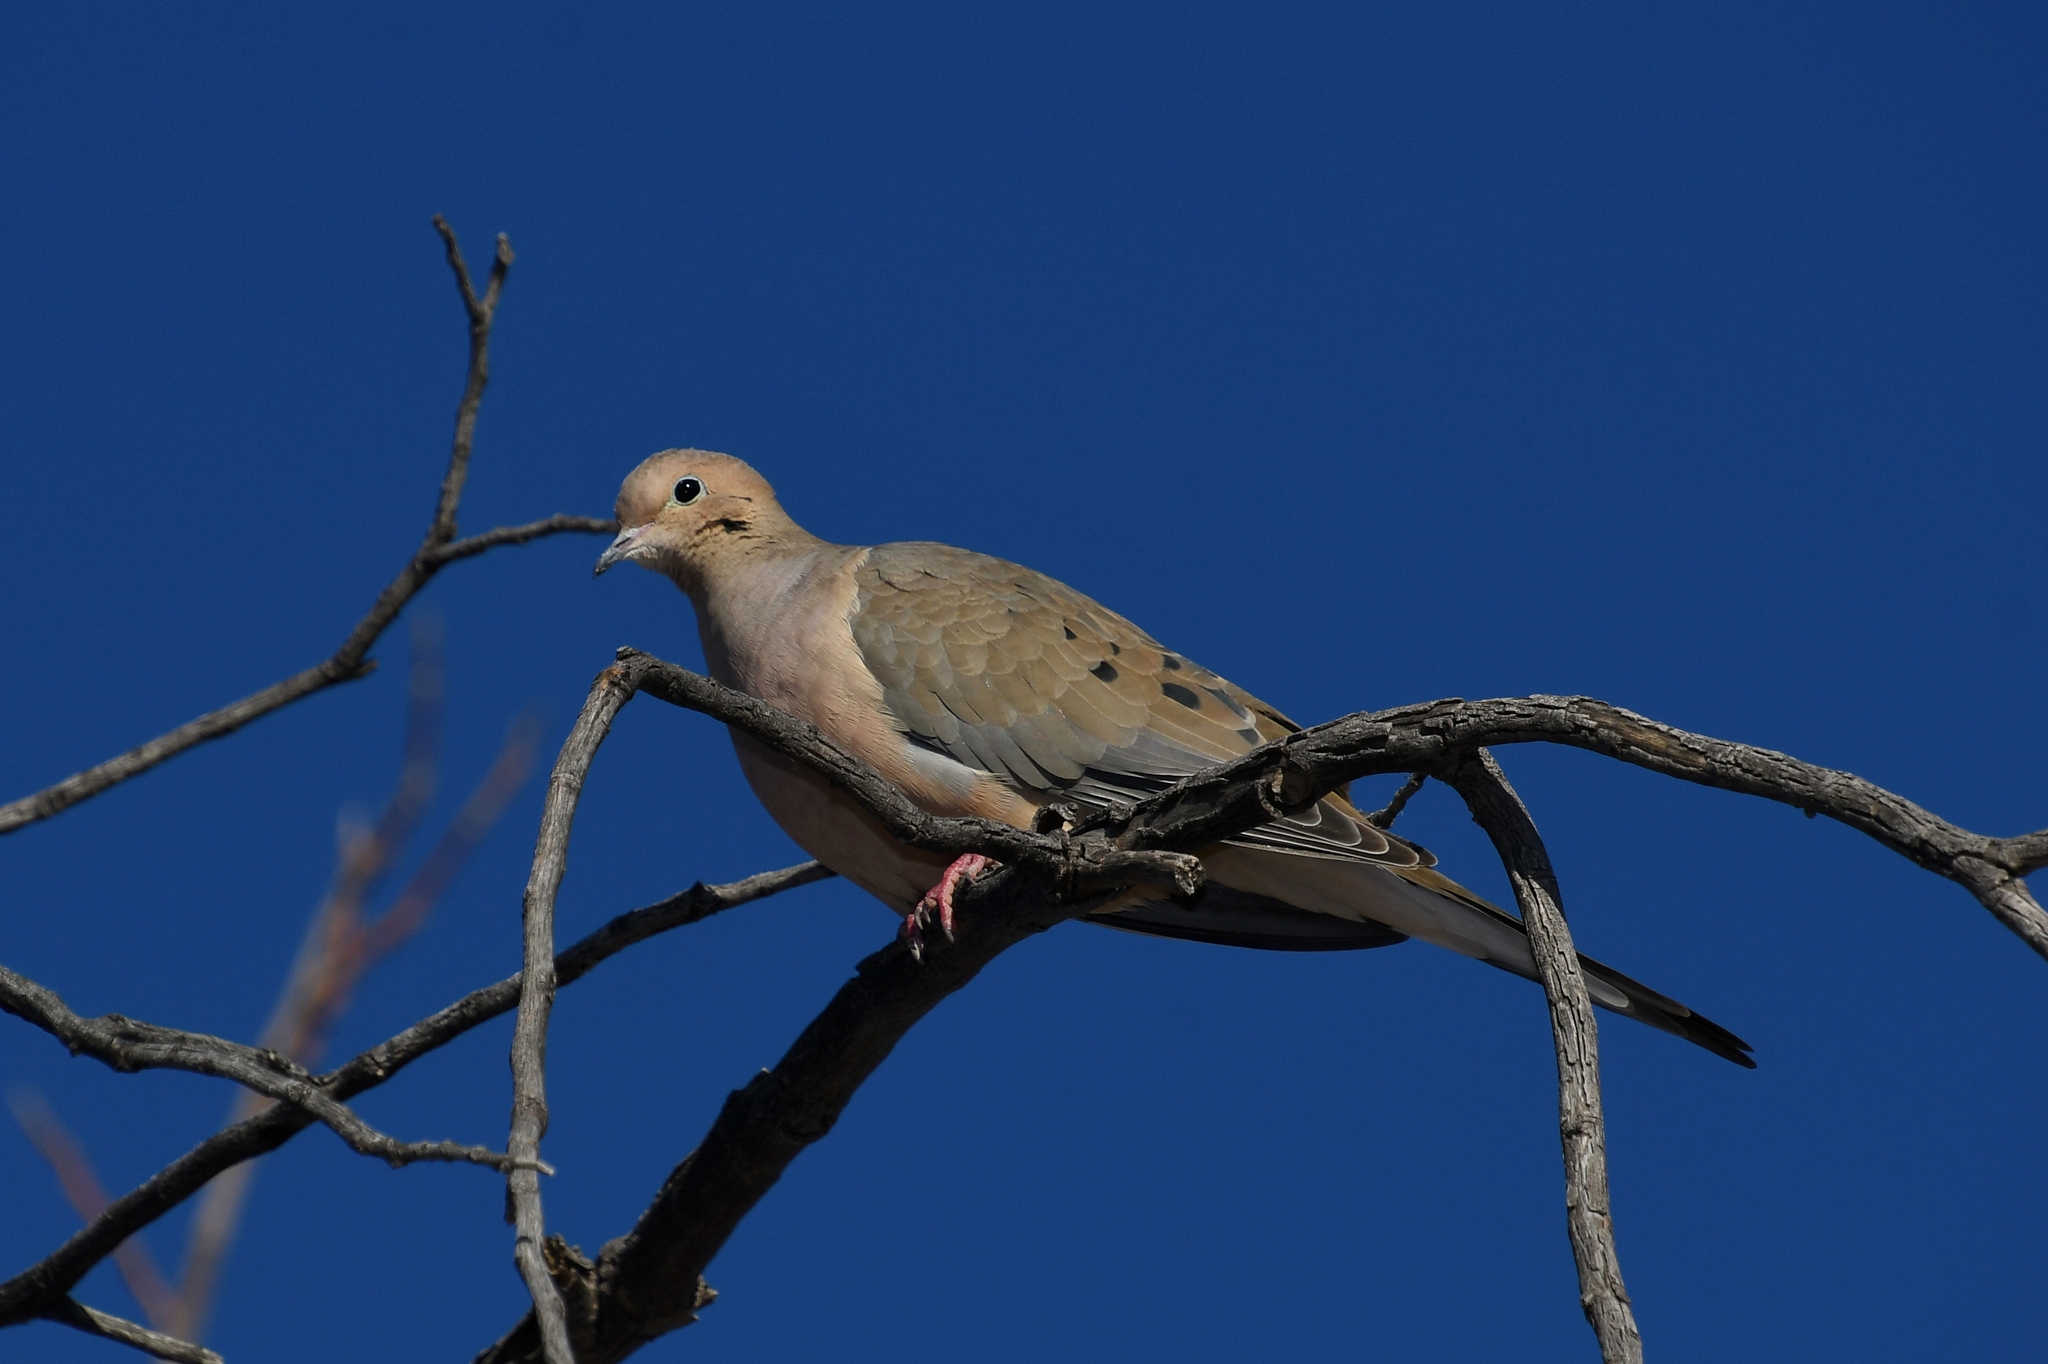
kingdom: Animalia
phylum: Chordata
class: Aves
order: Columbiformes
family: Columbidae
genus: Zenaida
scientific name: Zenaida macroura
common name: Mourning dove
